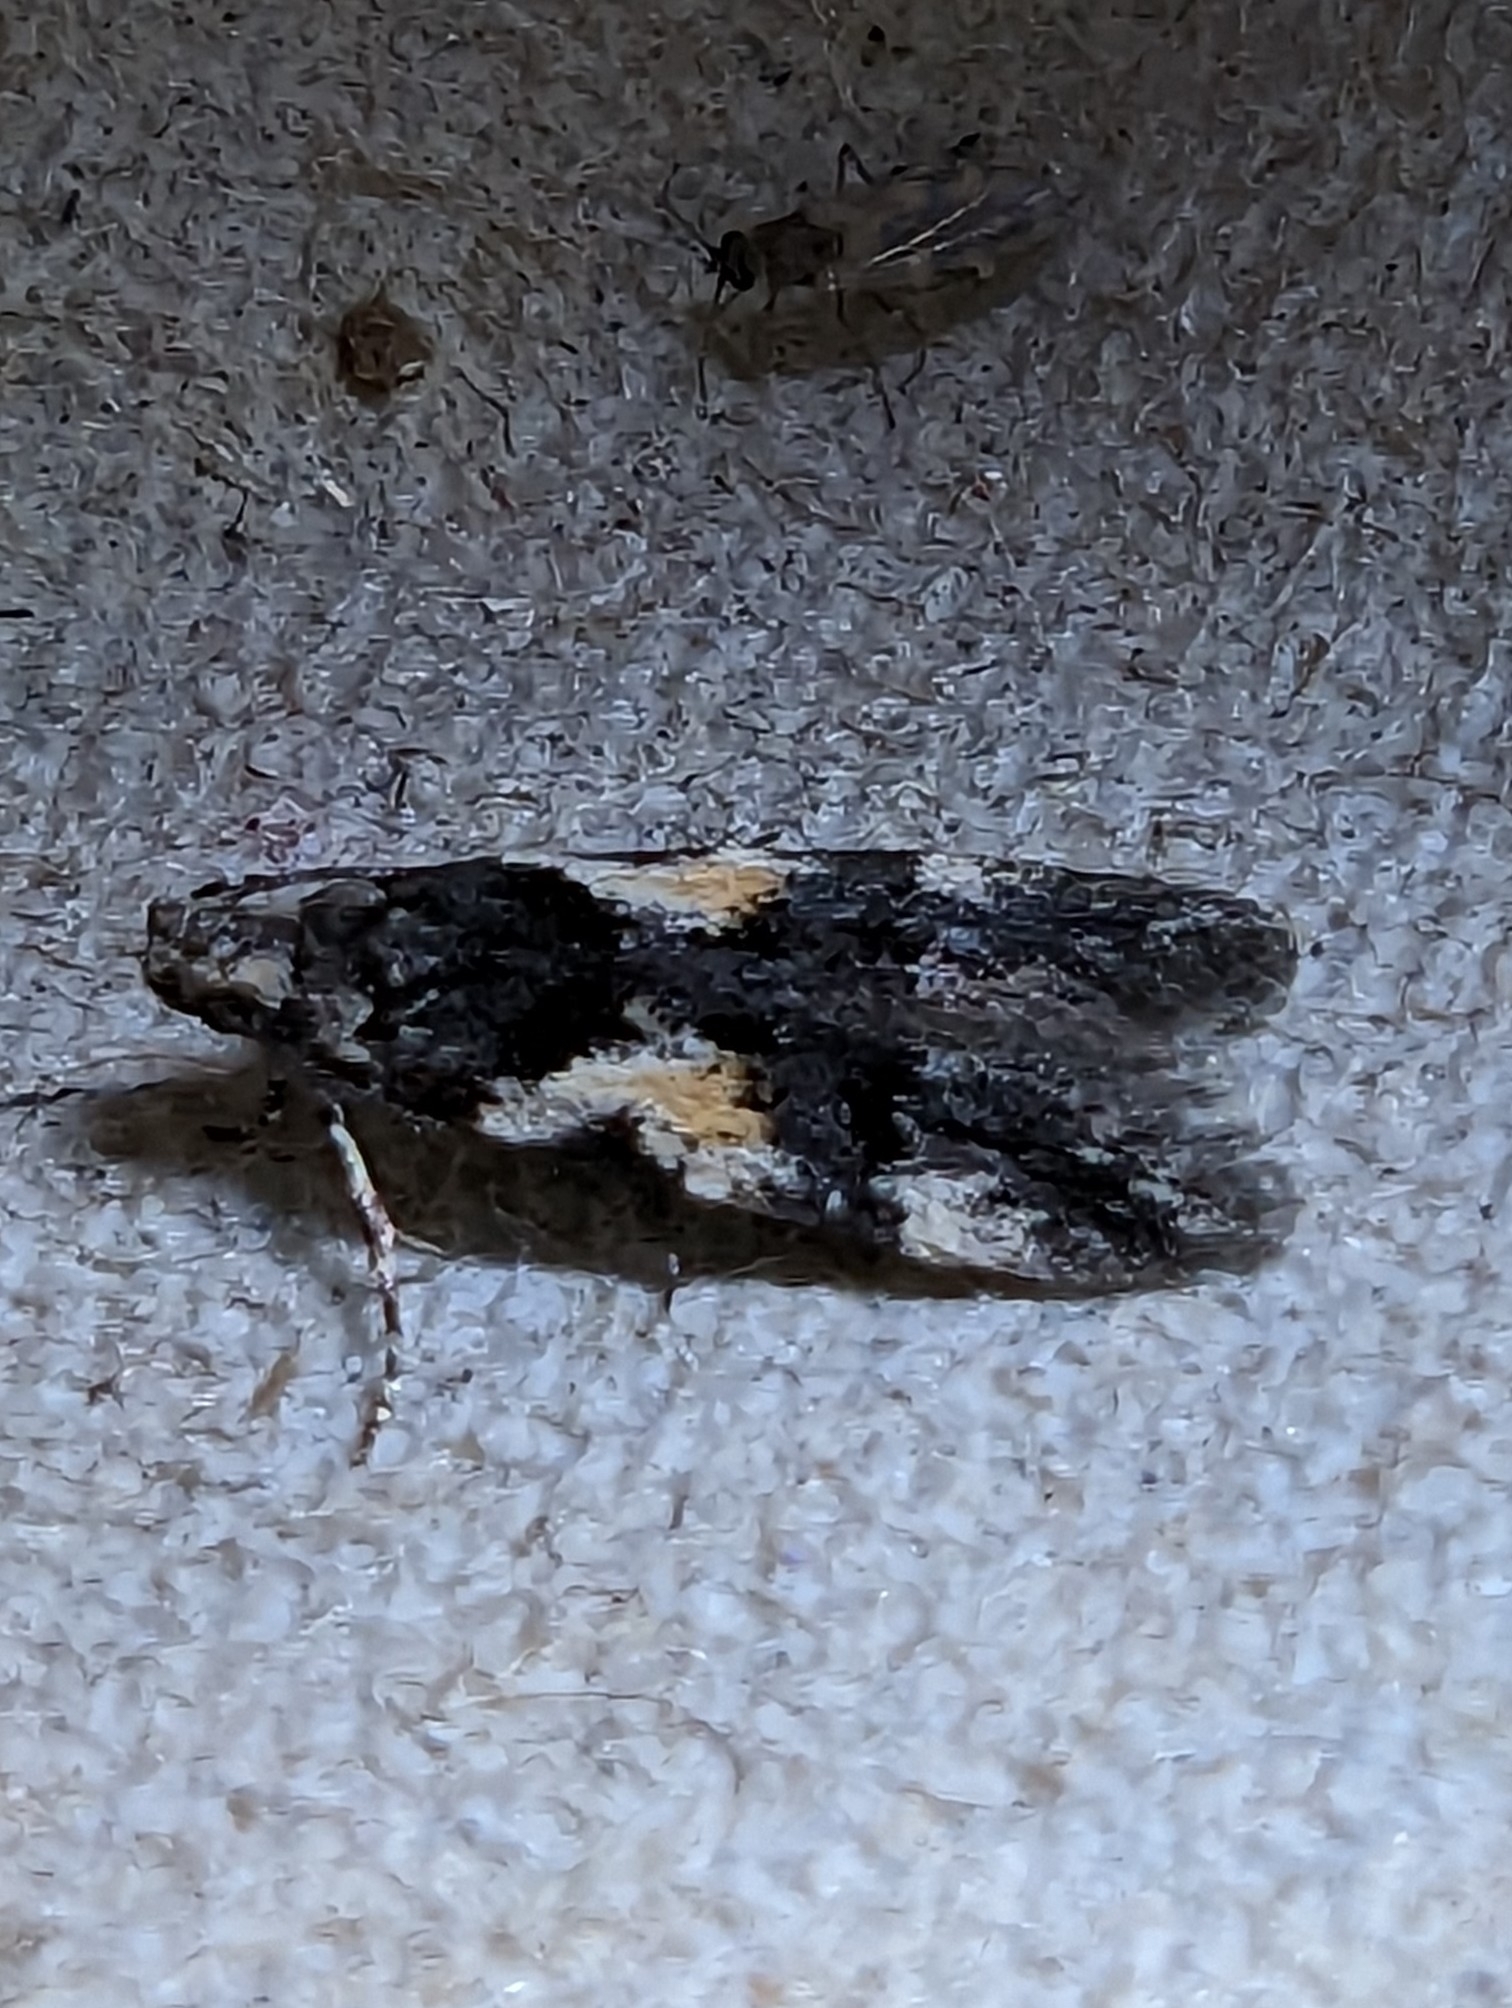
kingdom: Animalia
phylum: Arthropoda
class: Insecta
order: Lepidoptera
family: Gelechiidae
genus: Teleiodes
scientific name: Teleiodes luculella
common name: Crescent groundling
